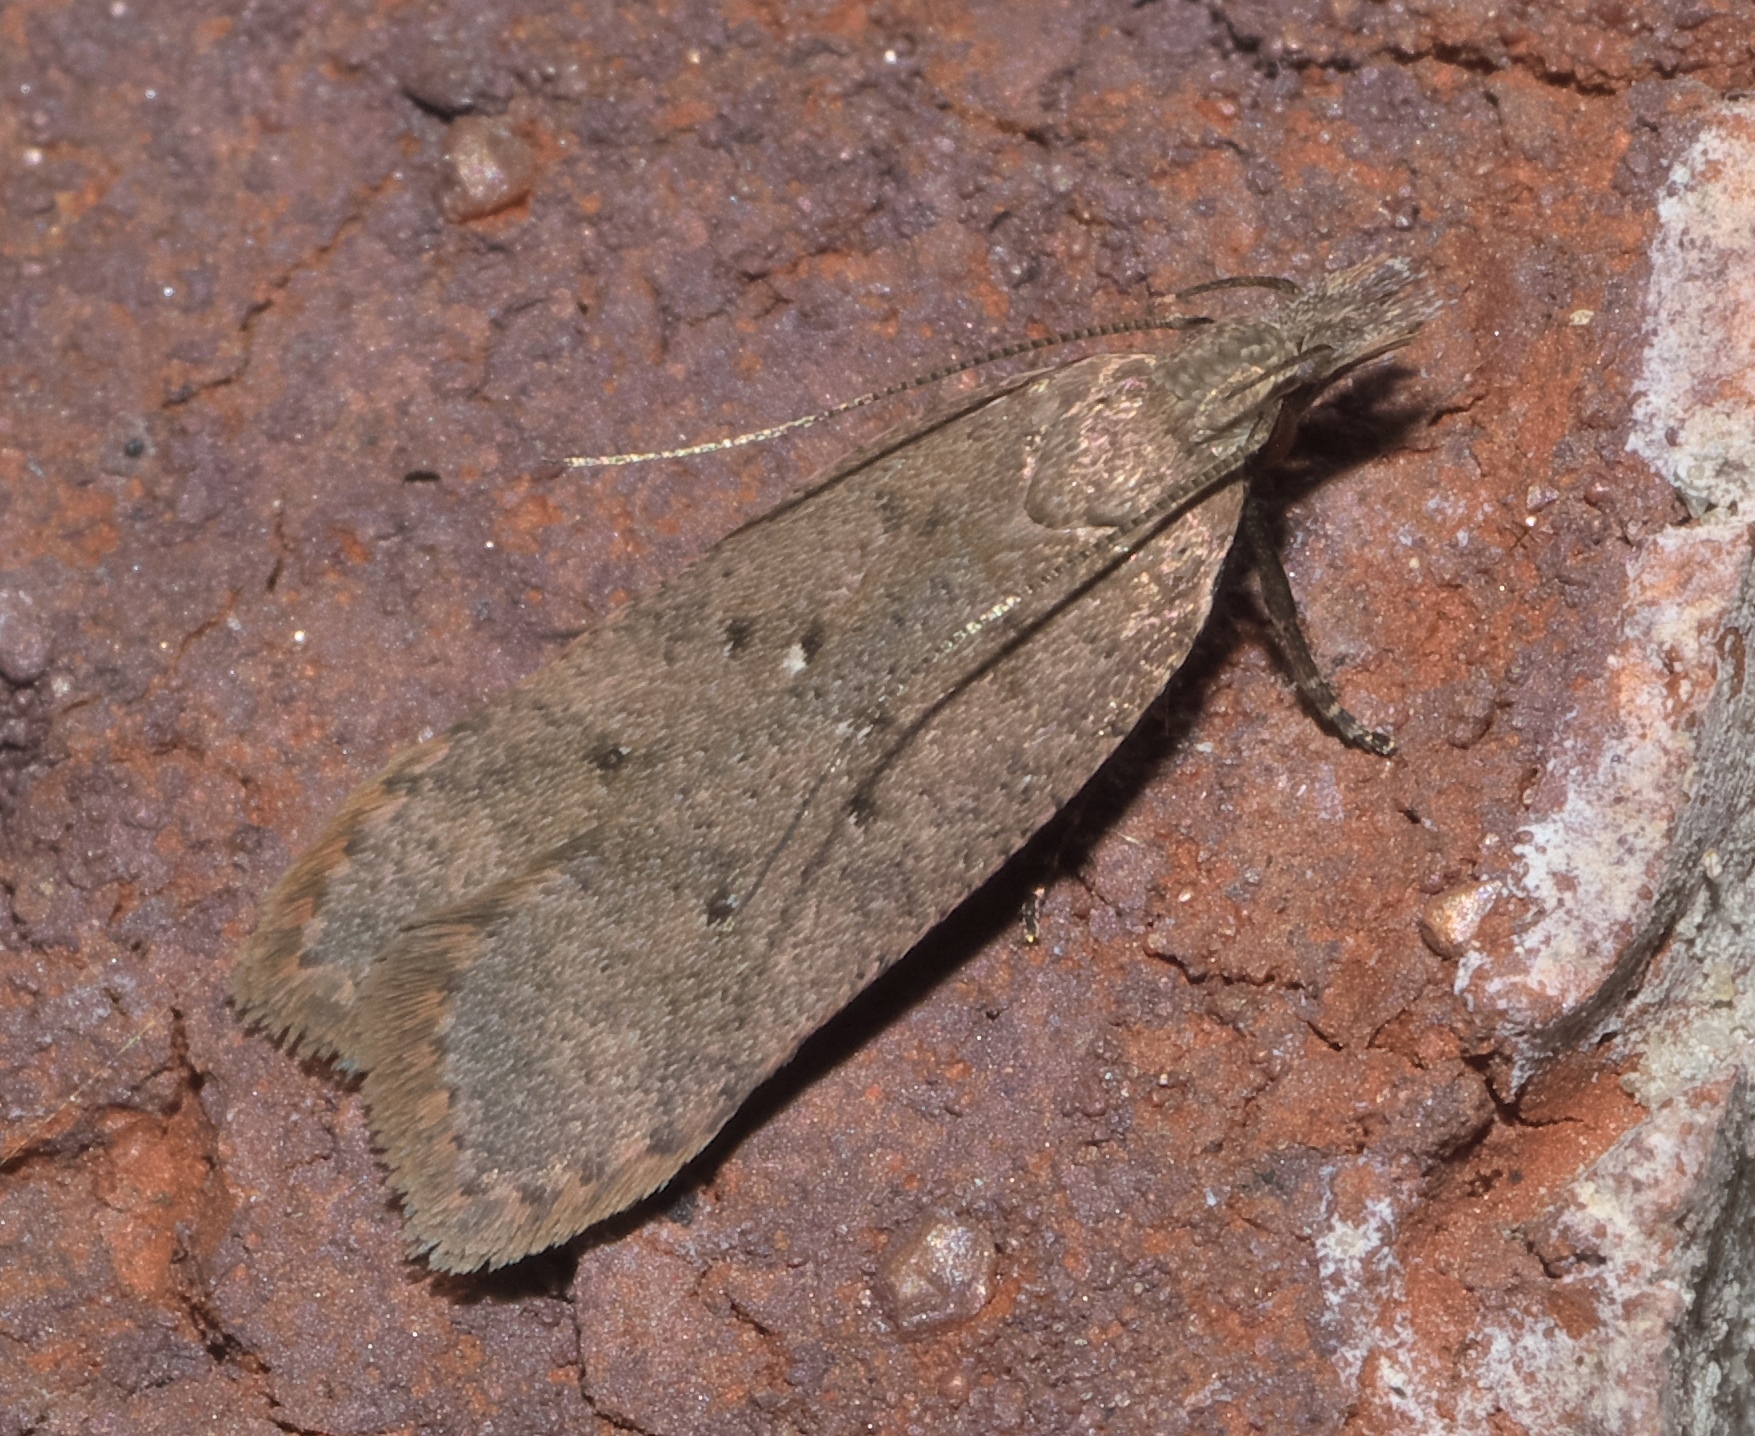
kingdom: Animalia
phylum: Arthropoda
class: Insecta
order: Lepidoptera
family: Gelechiidae
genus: Dichomeris
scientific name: Dichomeris ventrellus
